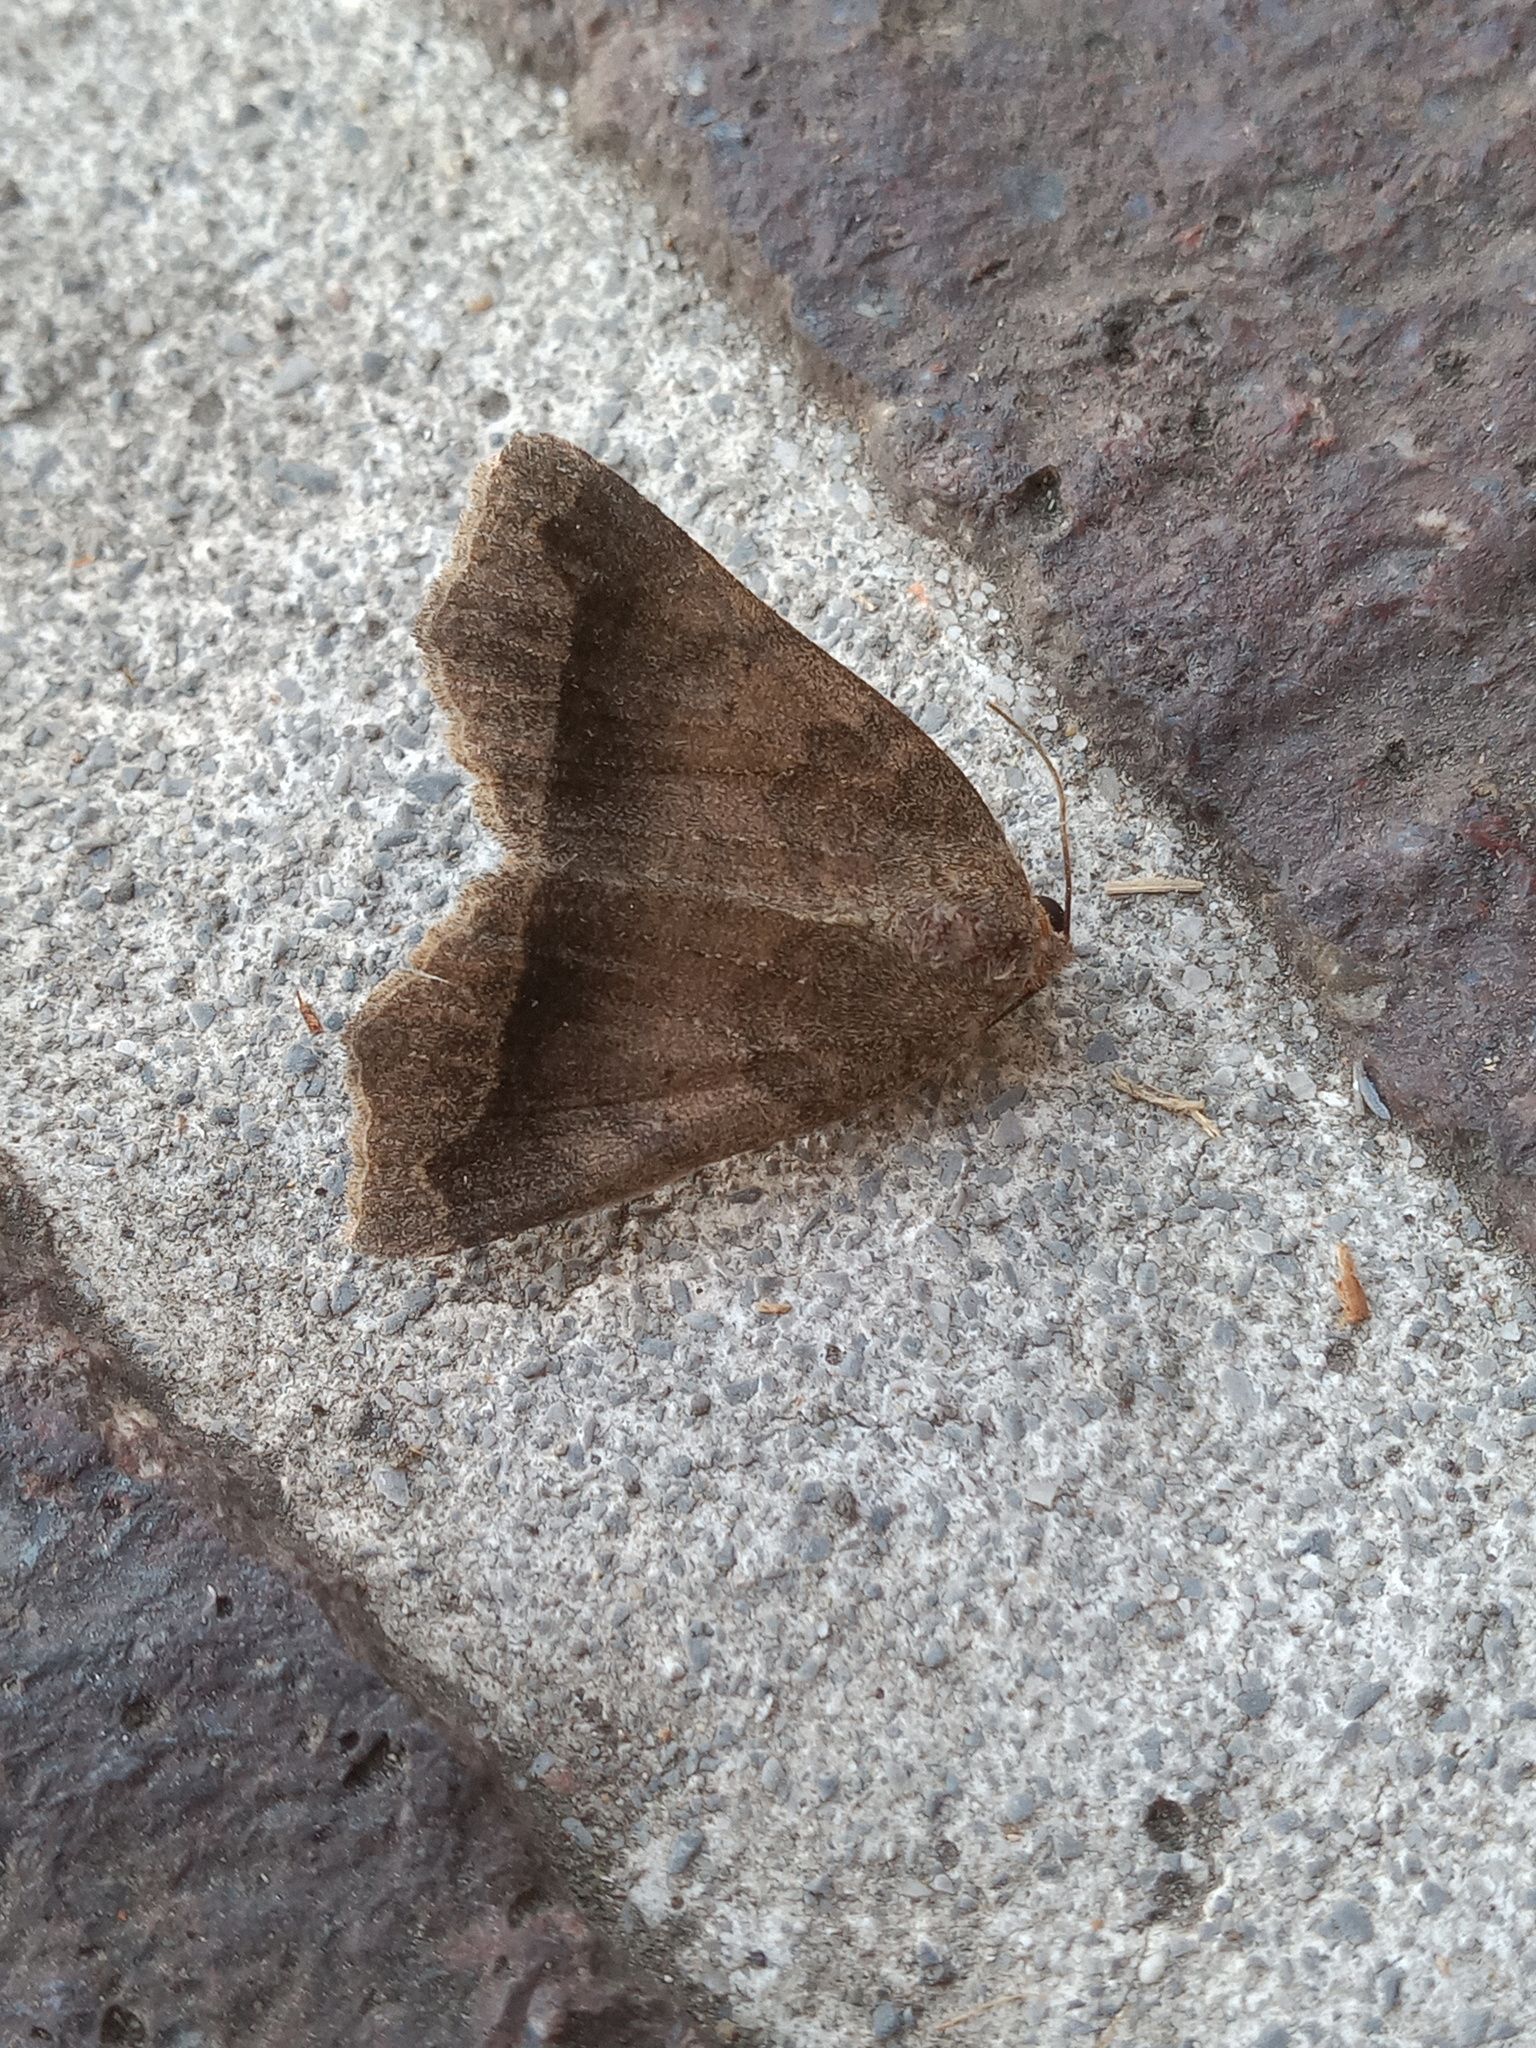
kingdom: Animalia
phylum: Arthropoda
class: Insecta
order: Lepidoptera
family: Erebidae
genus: Bendisodes
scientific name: Bendisodes aeolia
